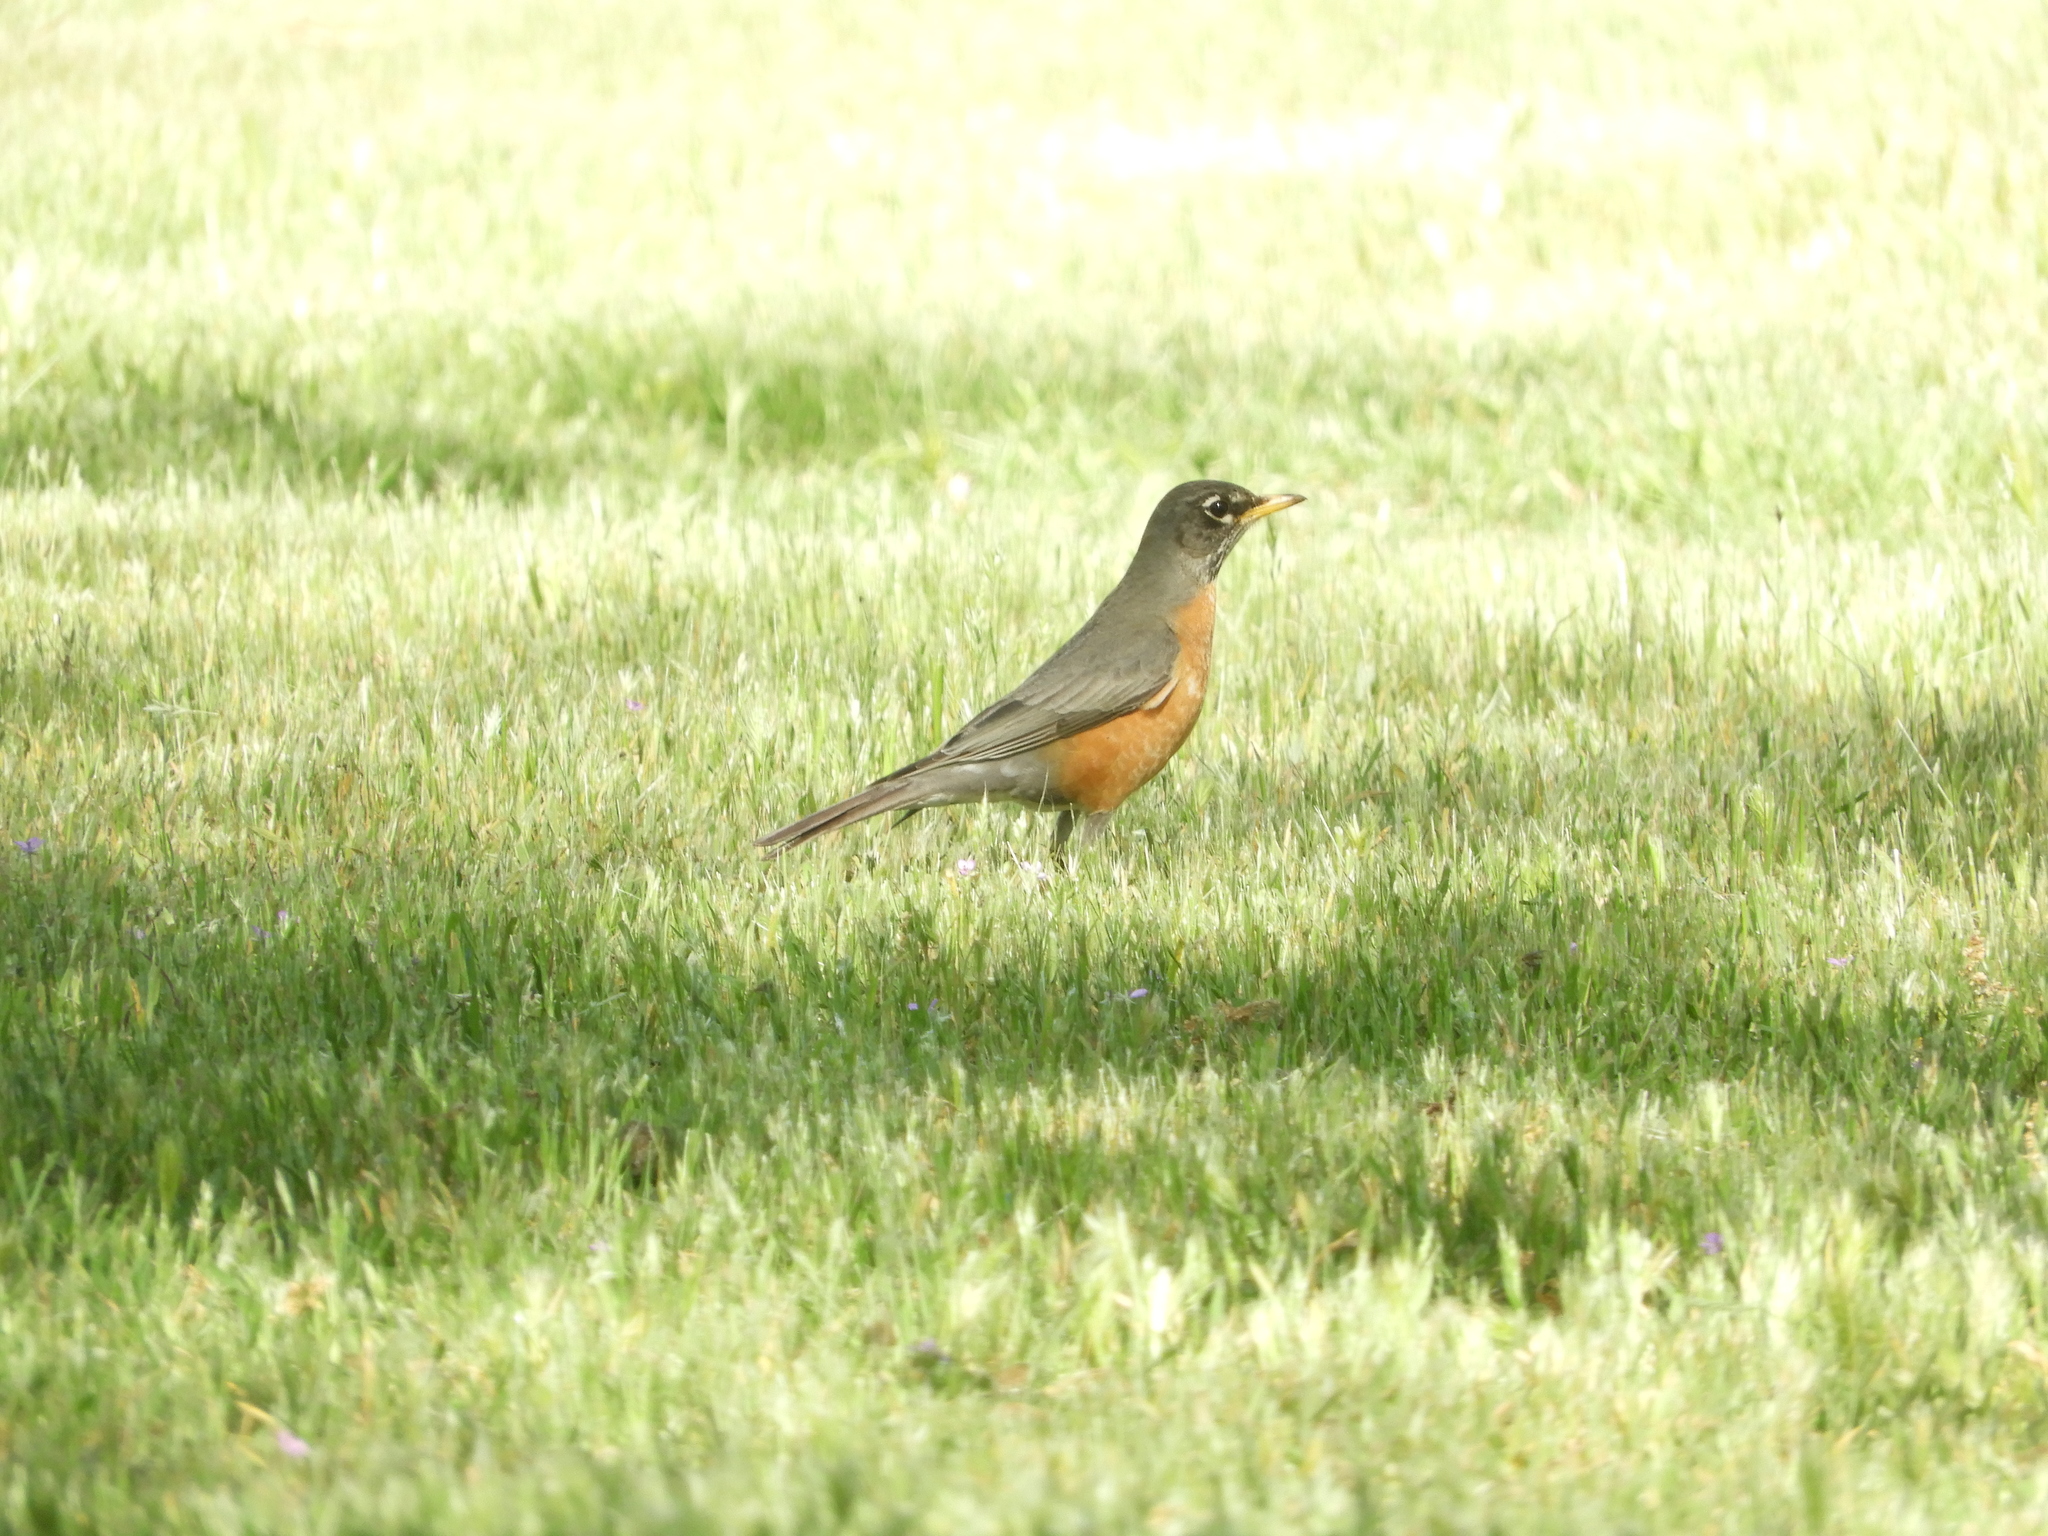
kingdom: Animalia
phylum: Chordata
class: Aves
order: Passeriformes
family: Turdidae
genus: Turdus
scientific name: Turdus migratorius
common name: American robin
